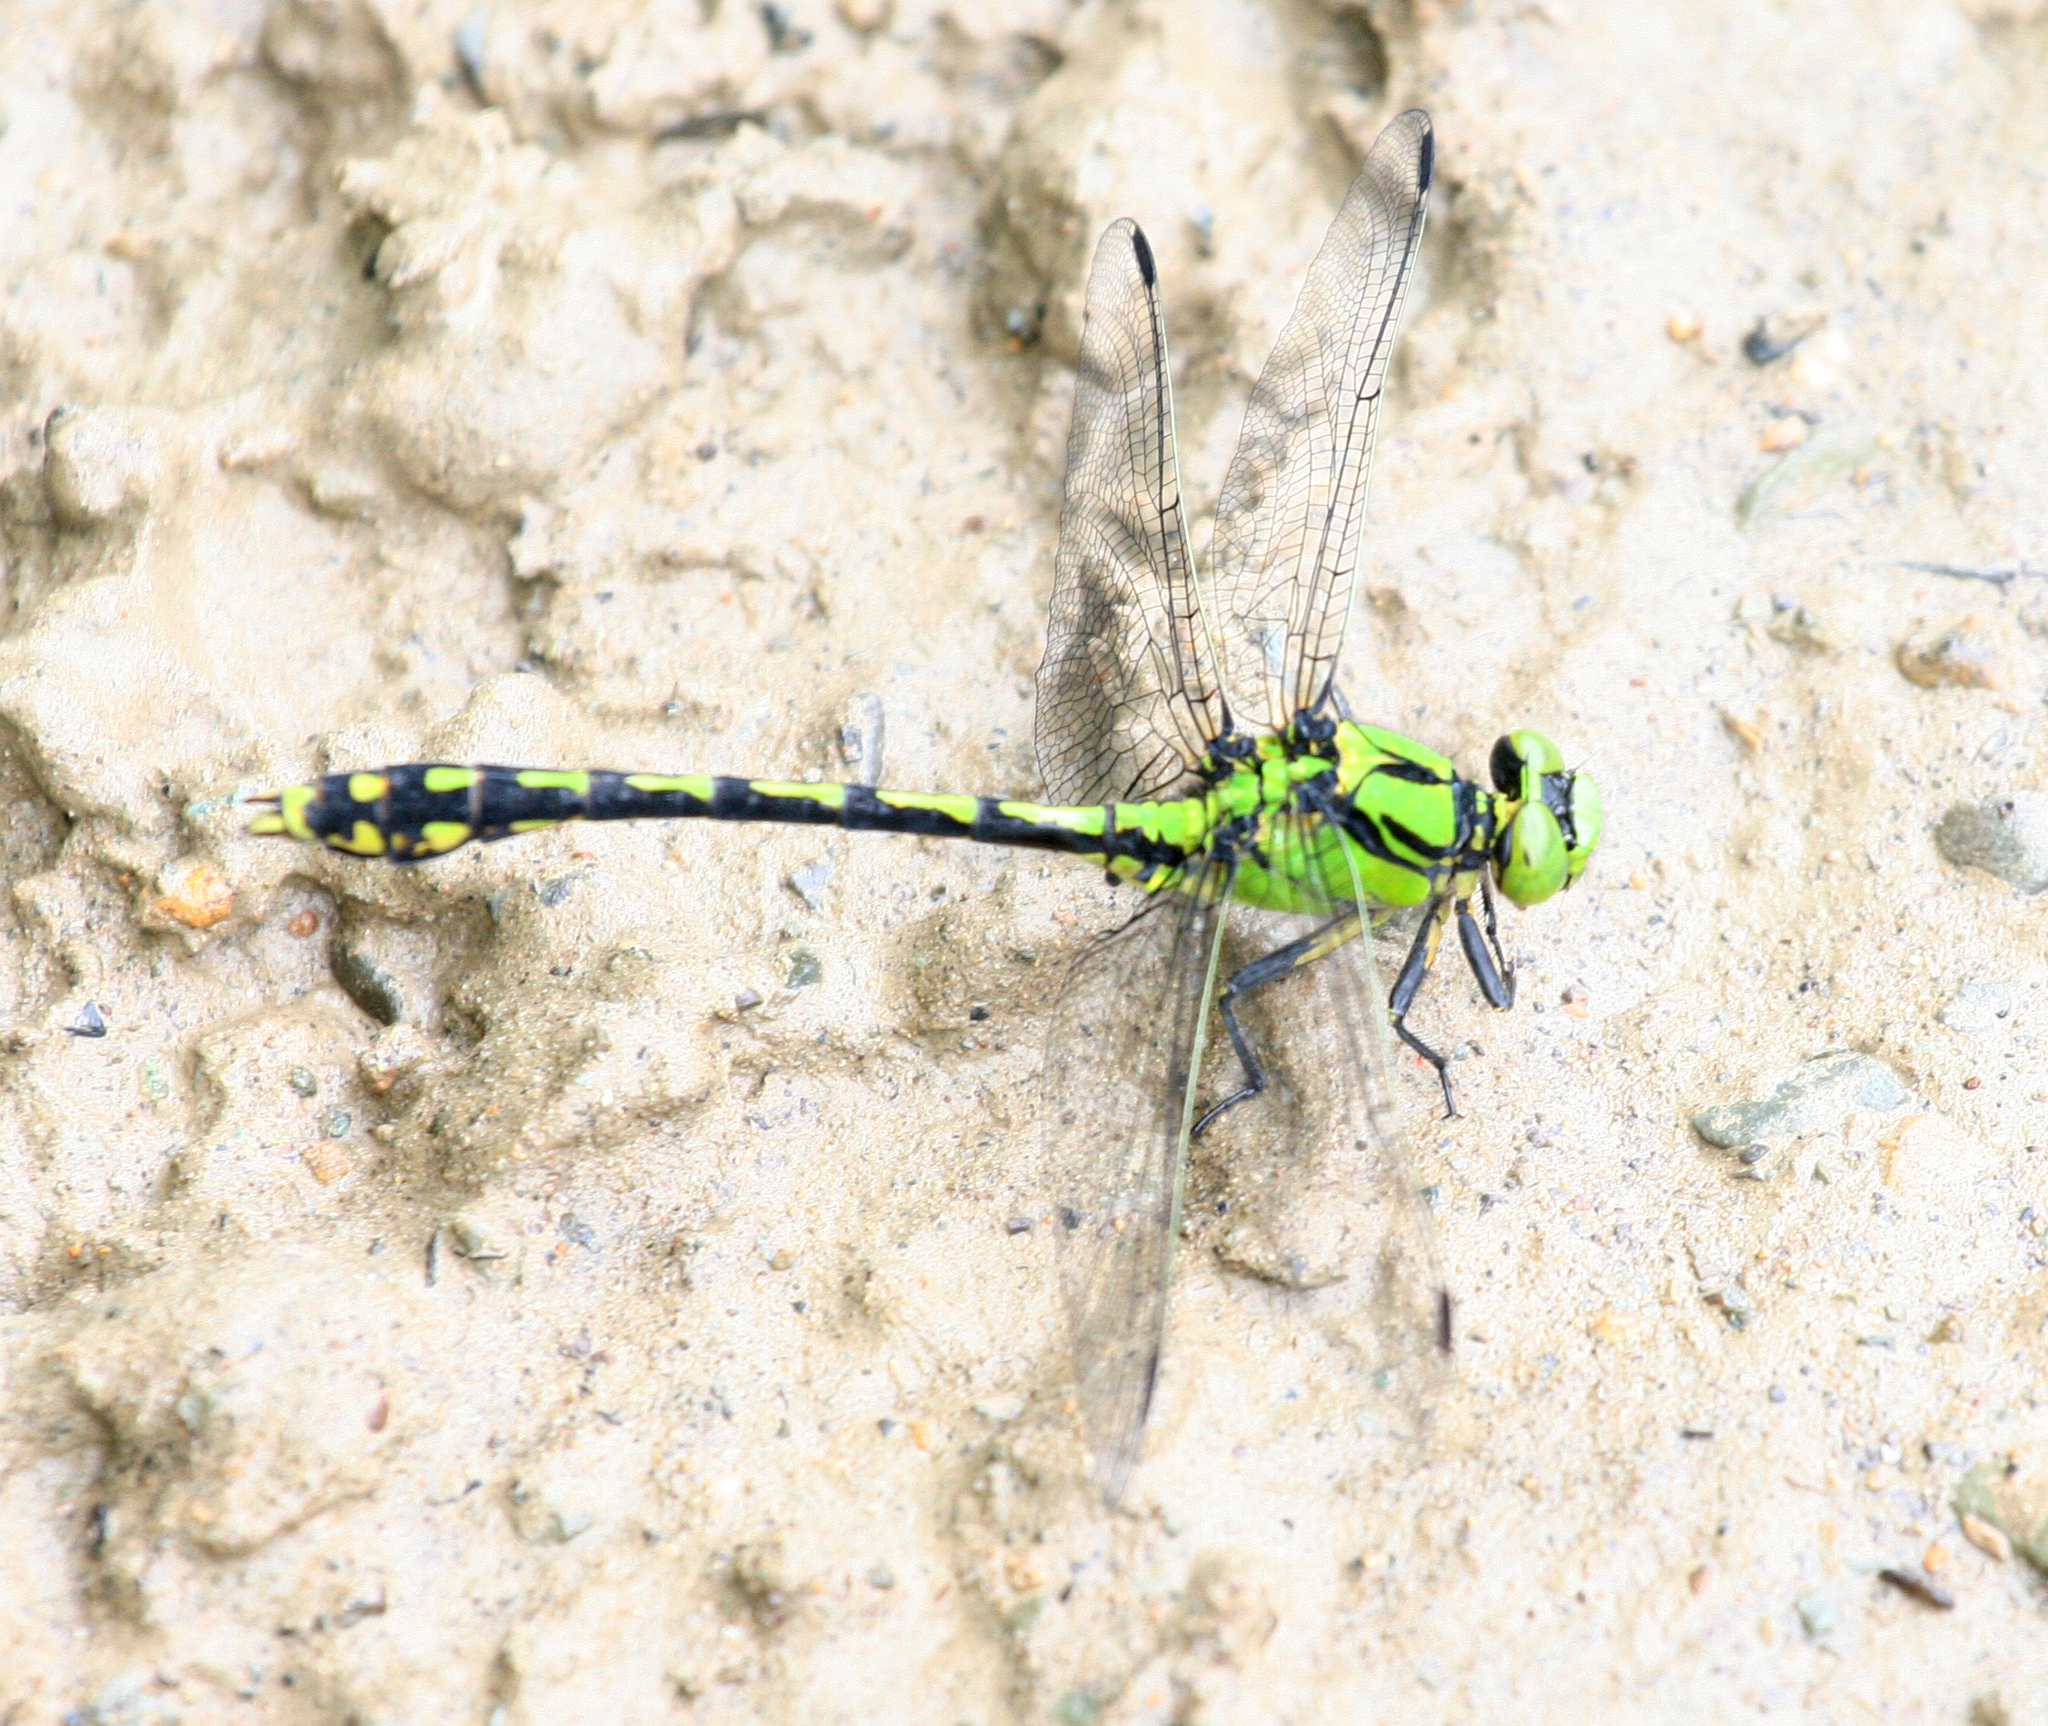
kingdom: Animalia
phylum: Arthropoda
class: Insecta
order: Odonata
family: Gomphidae
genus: Ophiogomphus
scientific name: Ophiogomphus obscurus
